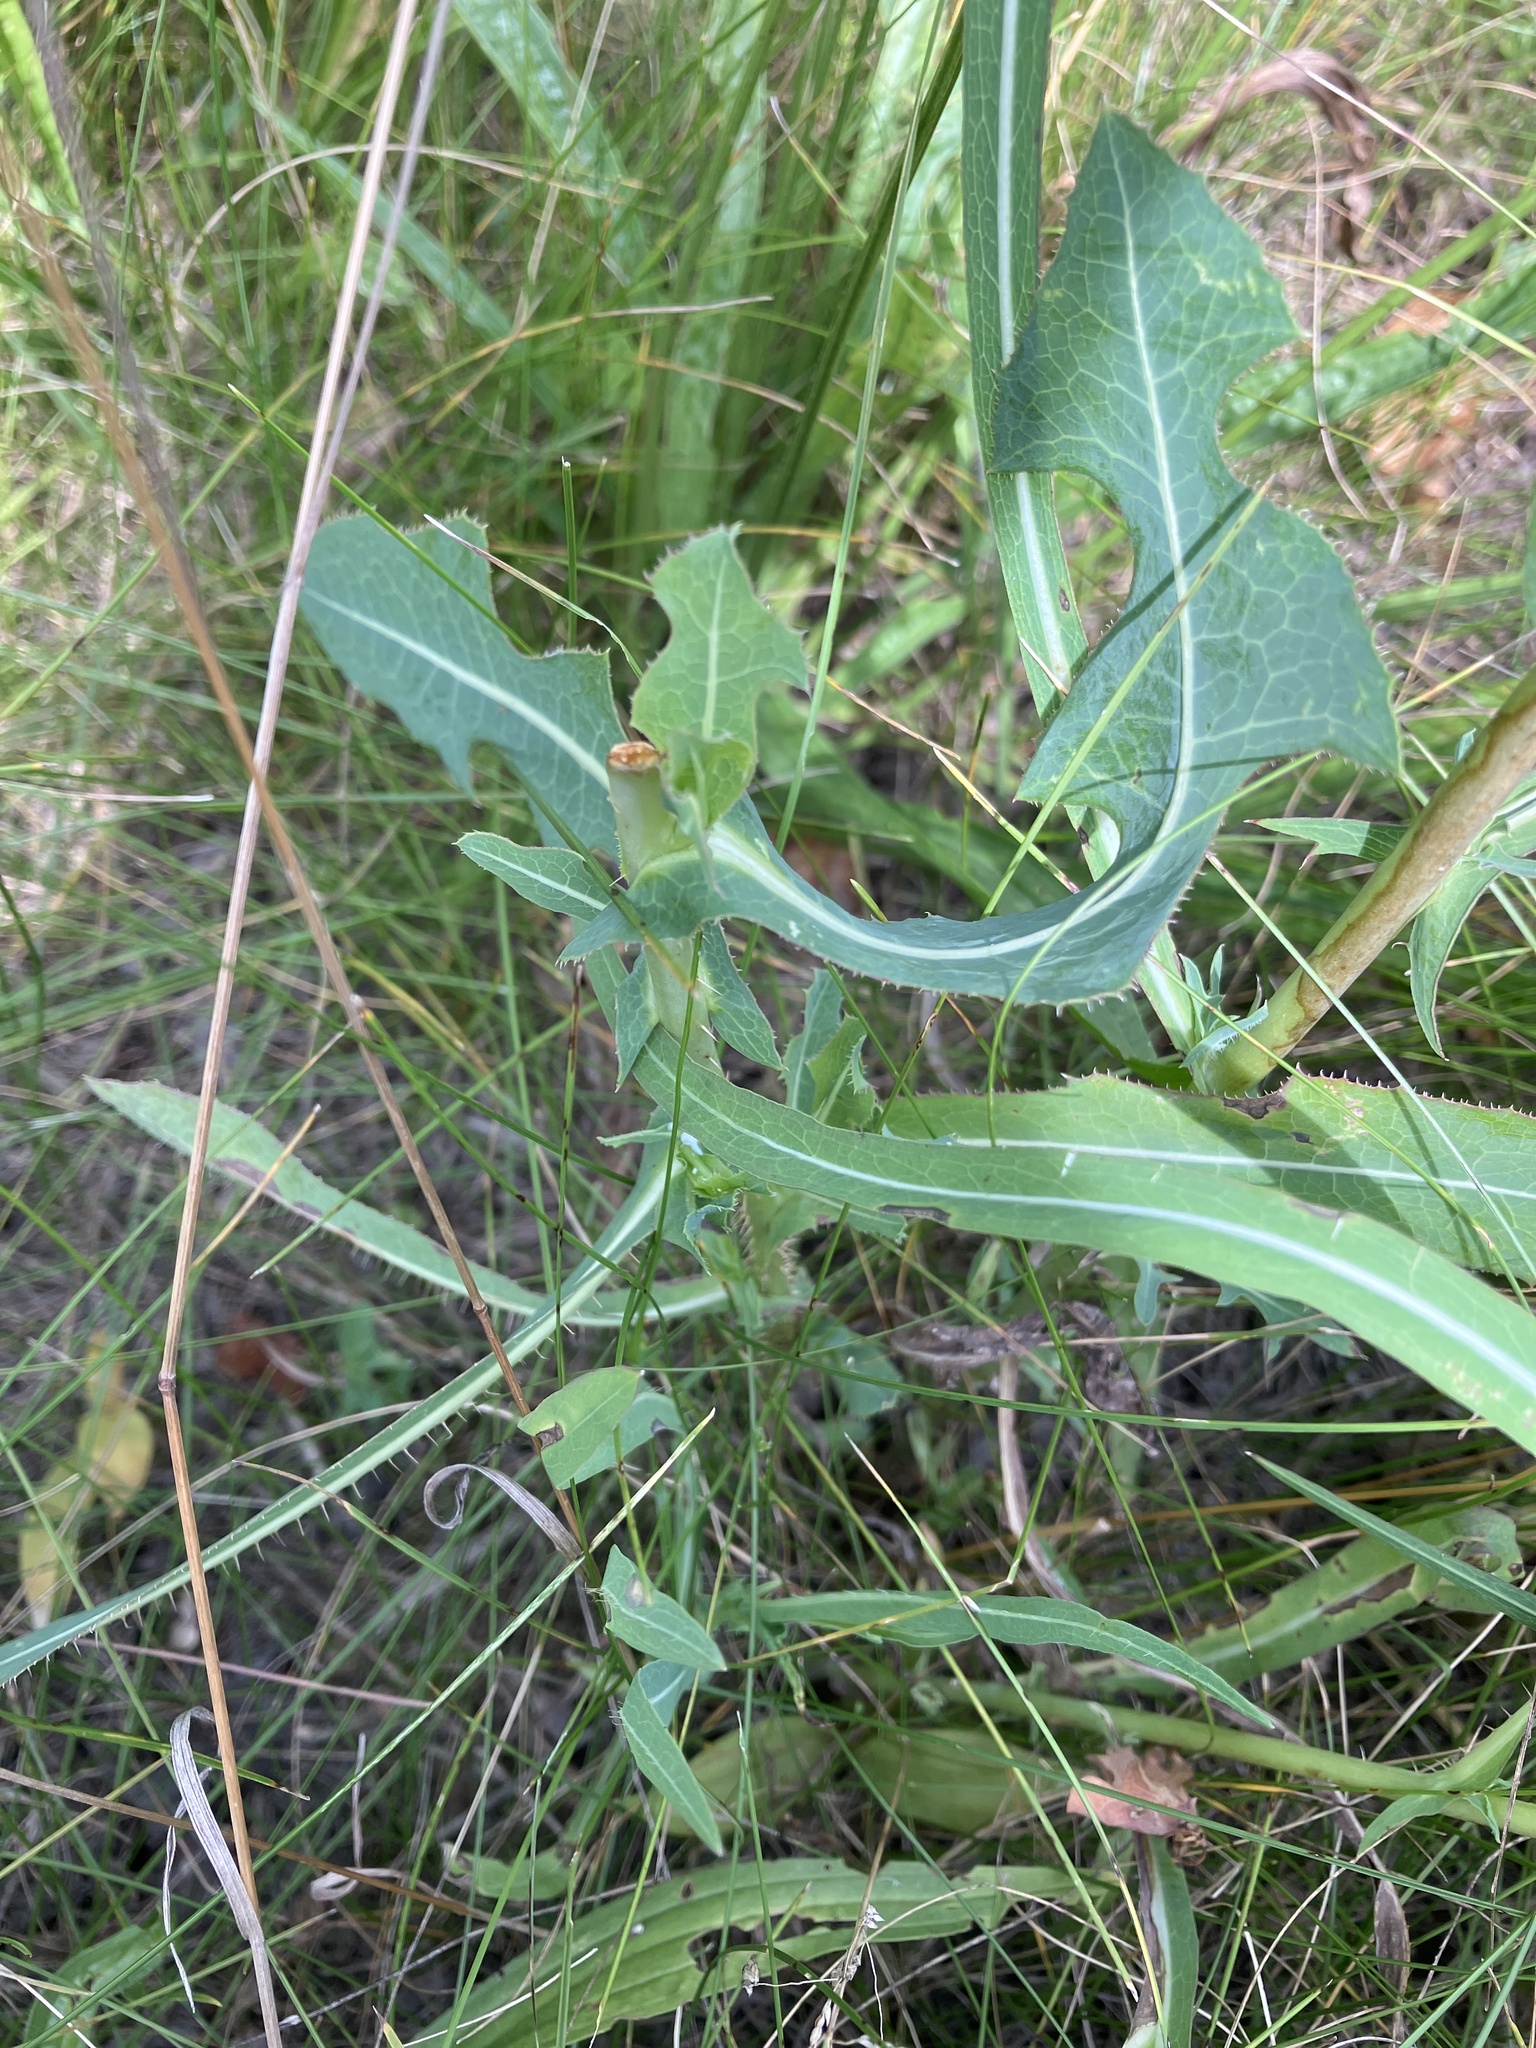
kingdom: Plantae
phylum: Tracheophyta
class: Magnoliopsida
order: Asterales
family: Asteraceae
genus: Lactuca
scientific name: Lactuca serriola
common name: Prickly lettuce
